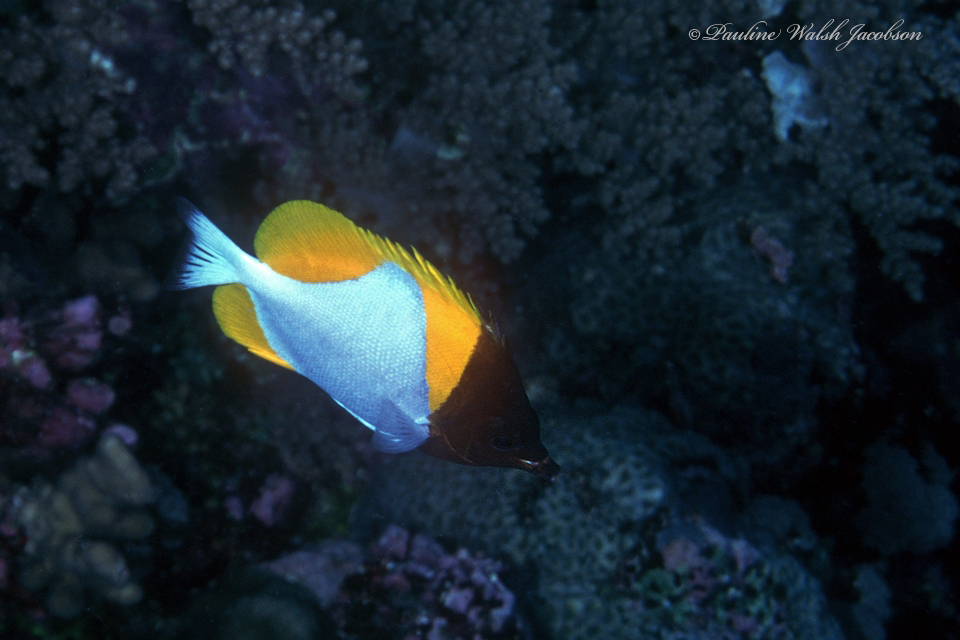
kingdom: Animalia
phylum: Chordata
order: Perciformes
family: Chaetodontidae
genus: Hemitaurichthys
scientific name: Hemitaurichthys polylepis
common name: Brushytoothed butterflyfish
